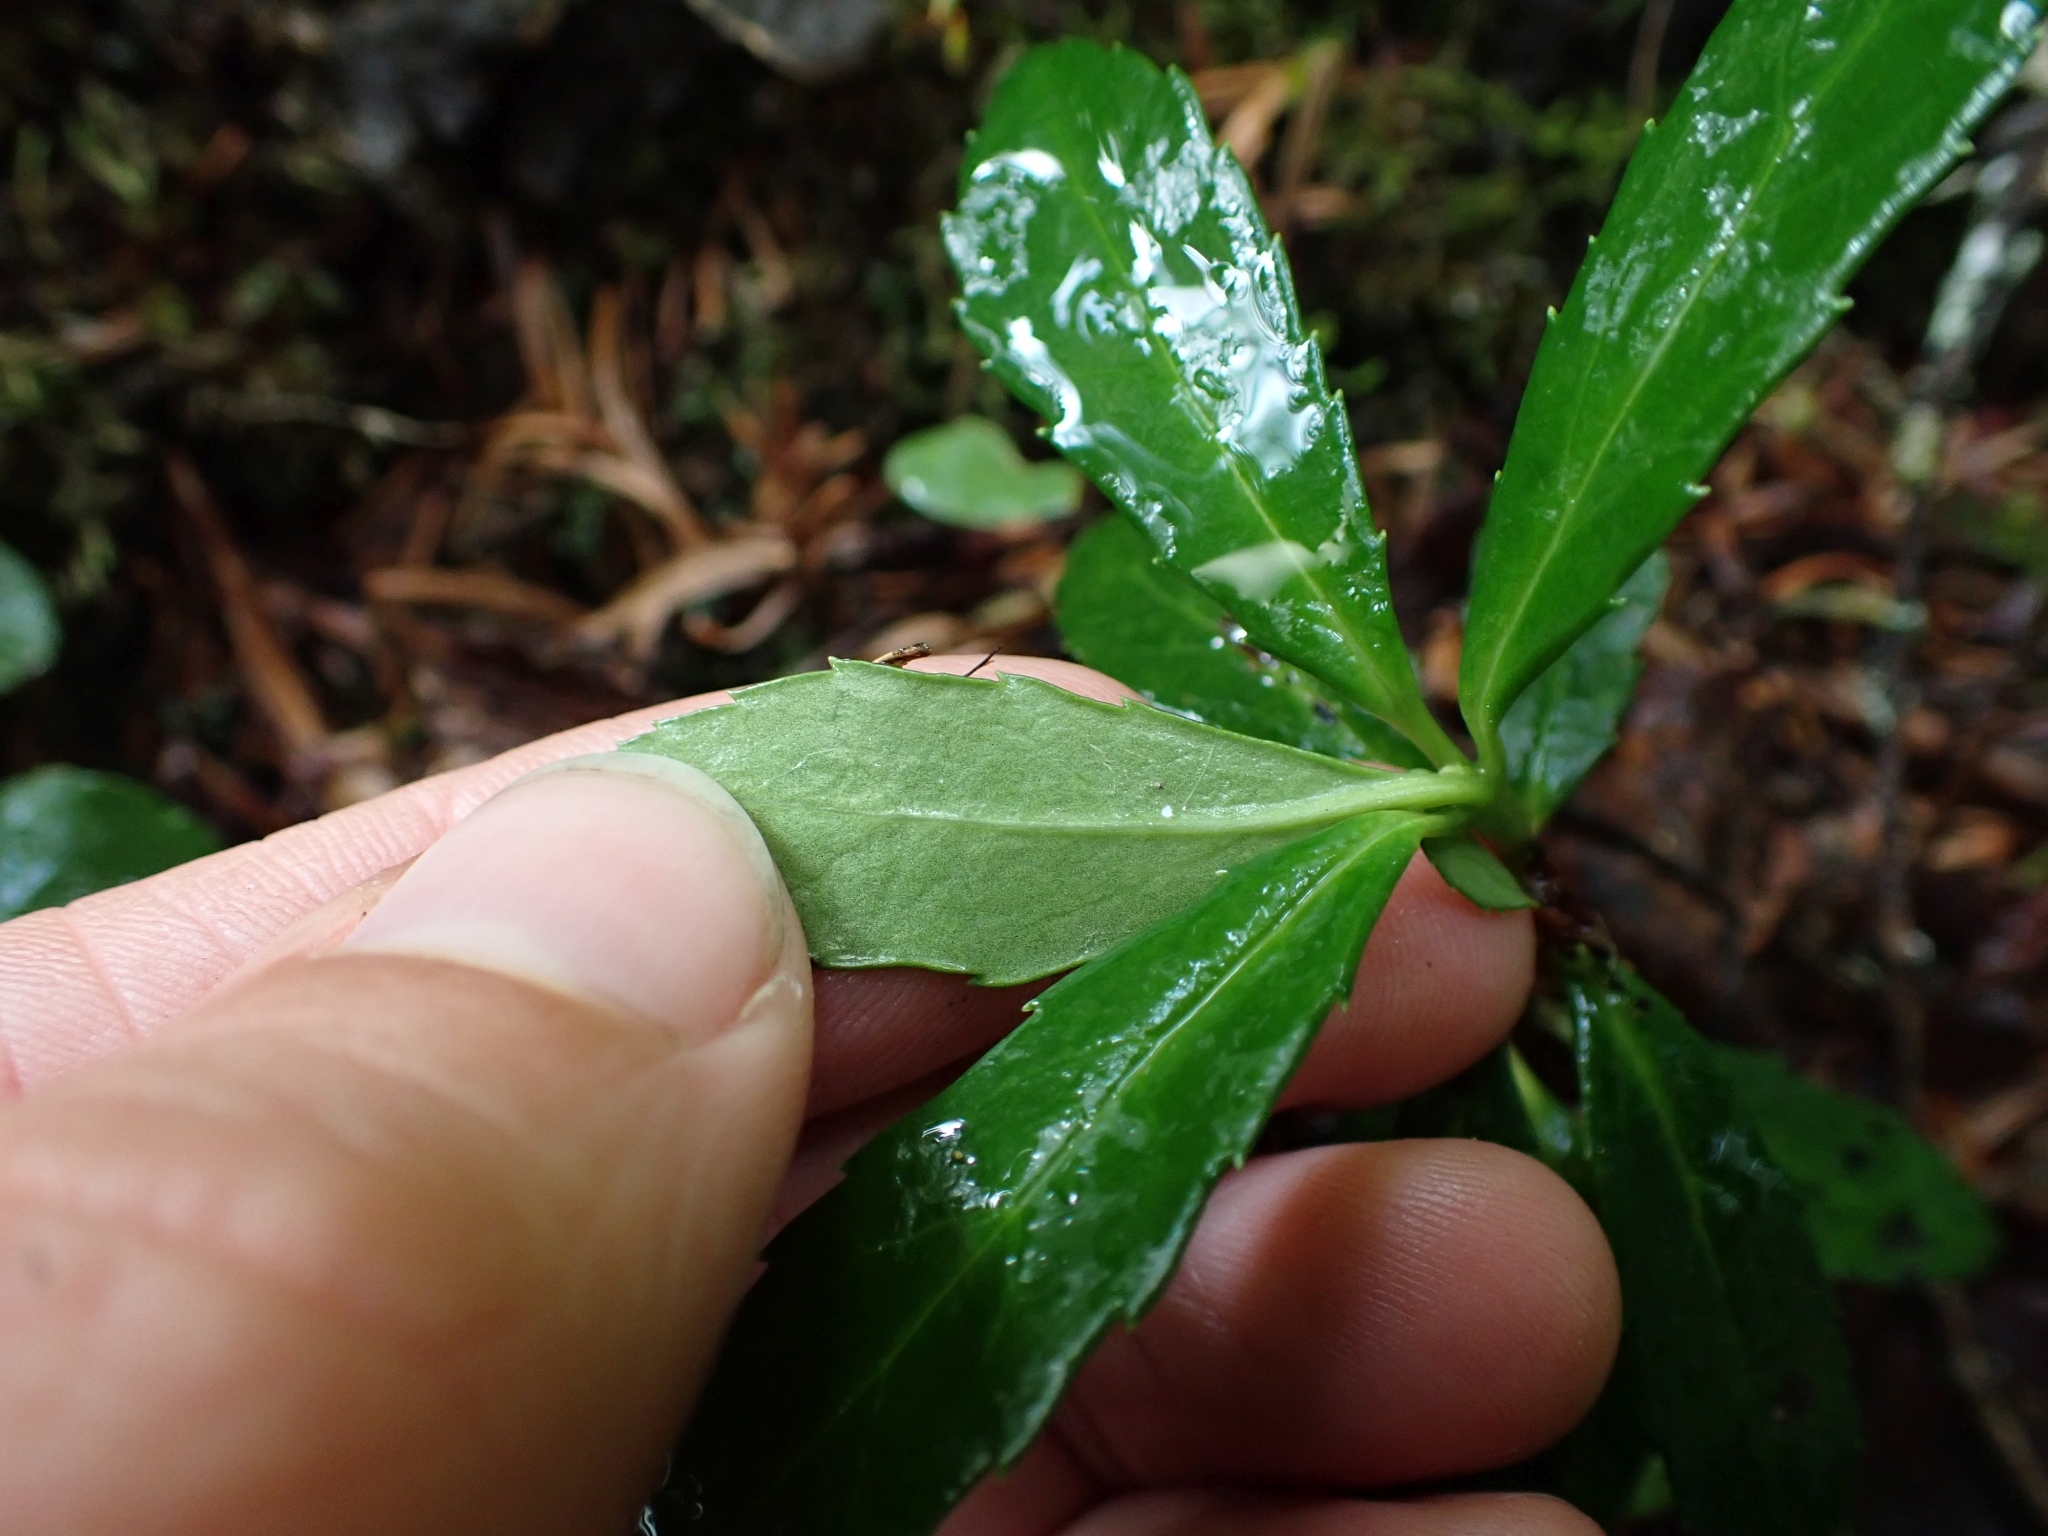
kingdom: Plantae
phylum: Tracheophyta
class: Magnoliopsida
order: Ericales
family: Ericaceae
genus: Chimaphila
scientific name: Chimaphila umbellata
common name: Pipsissewa
